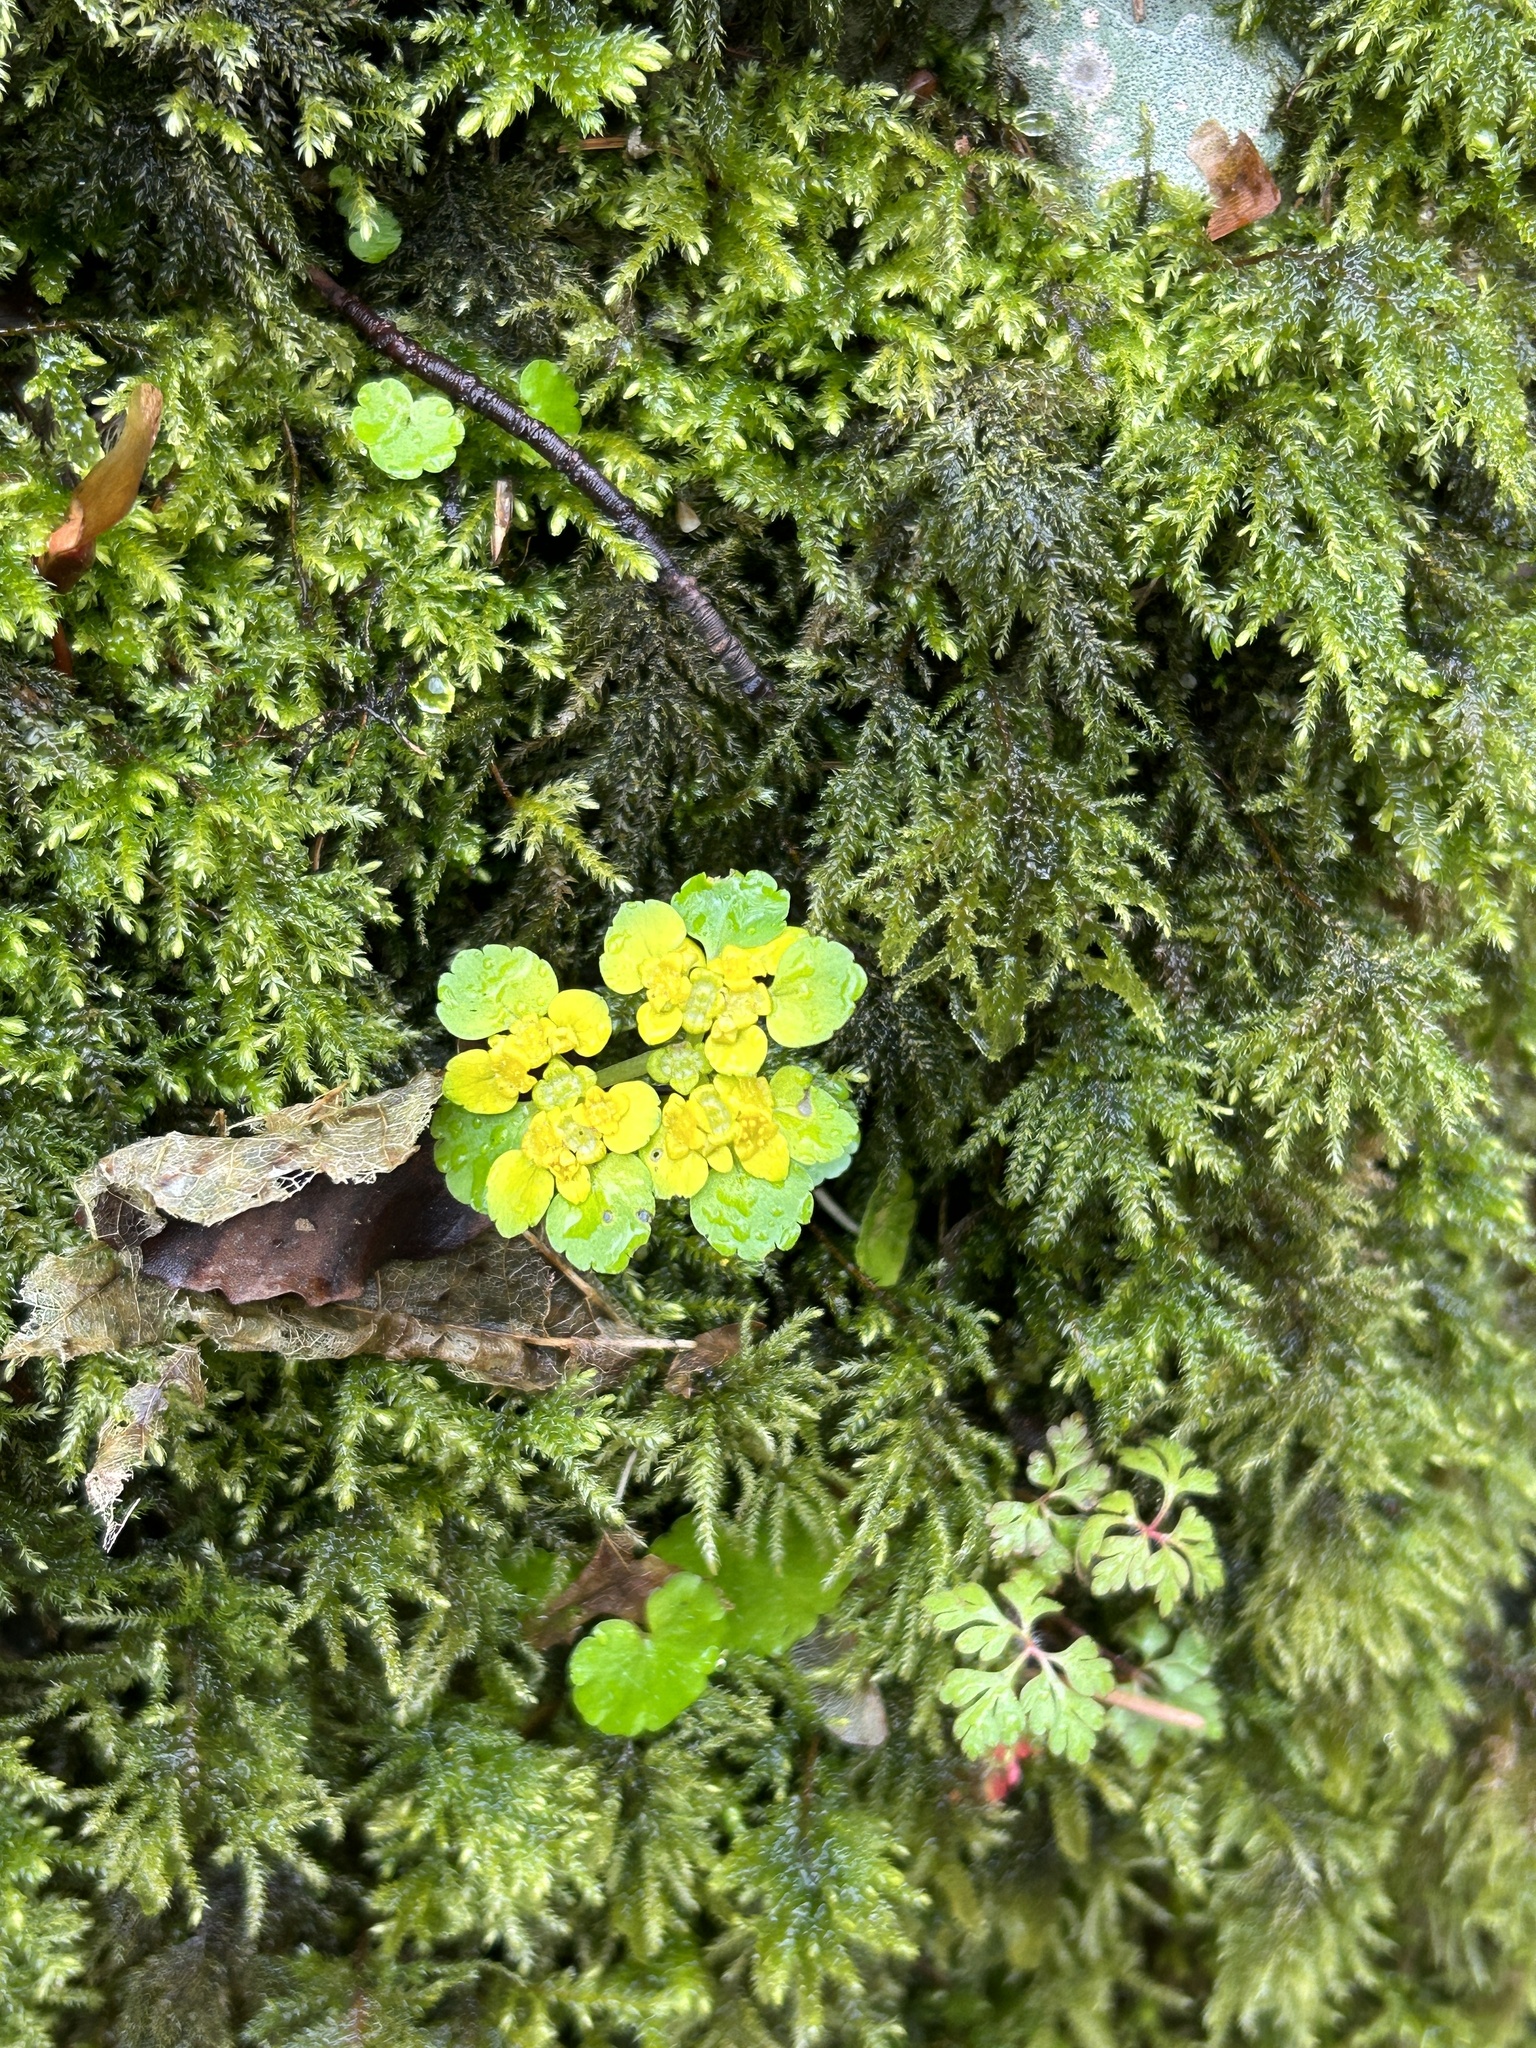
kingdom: Plantae
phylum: Tracheophyta
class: Magnoliopsida
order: Saxifragales
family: Saxifragaceae
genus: Chrysosplenium
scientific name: Chrysosplenium alternifolium
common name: Alternate-leaved golden-saxifrage
